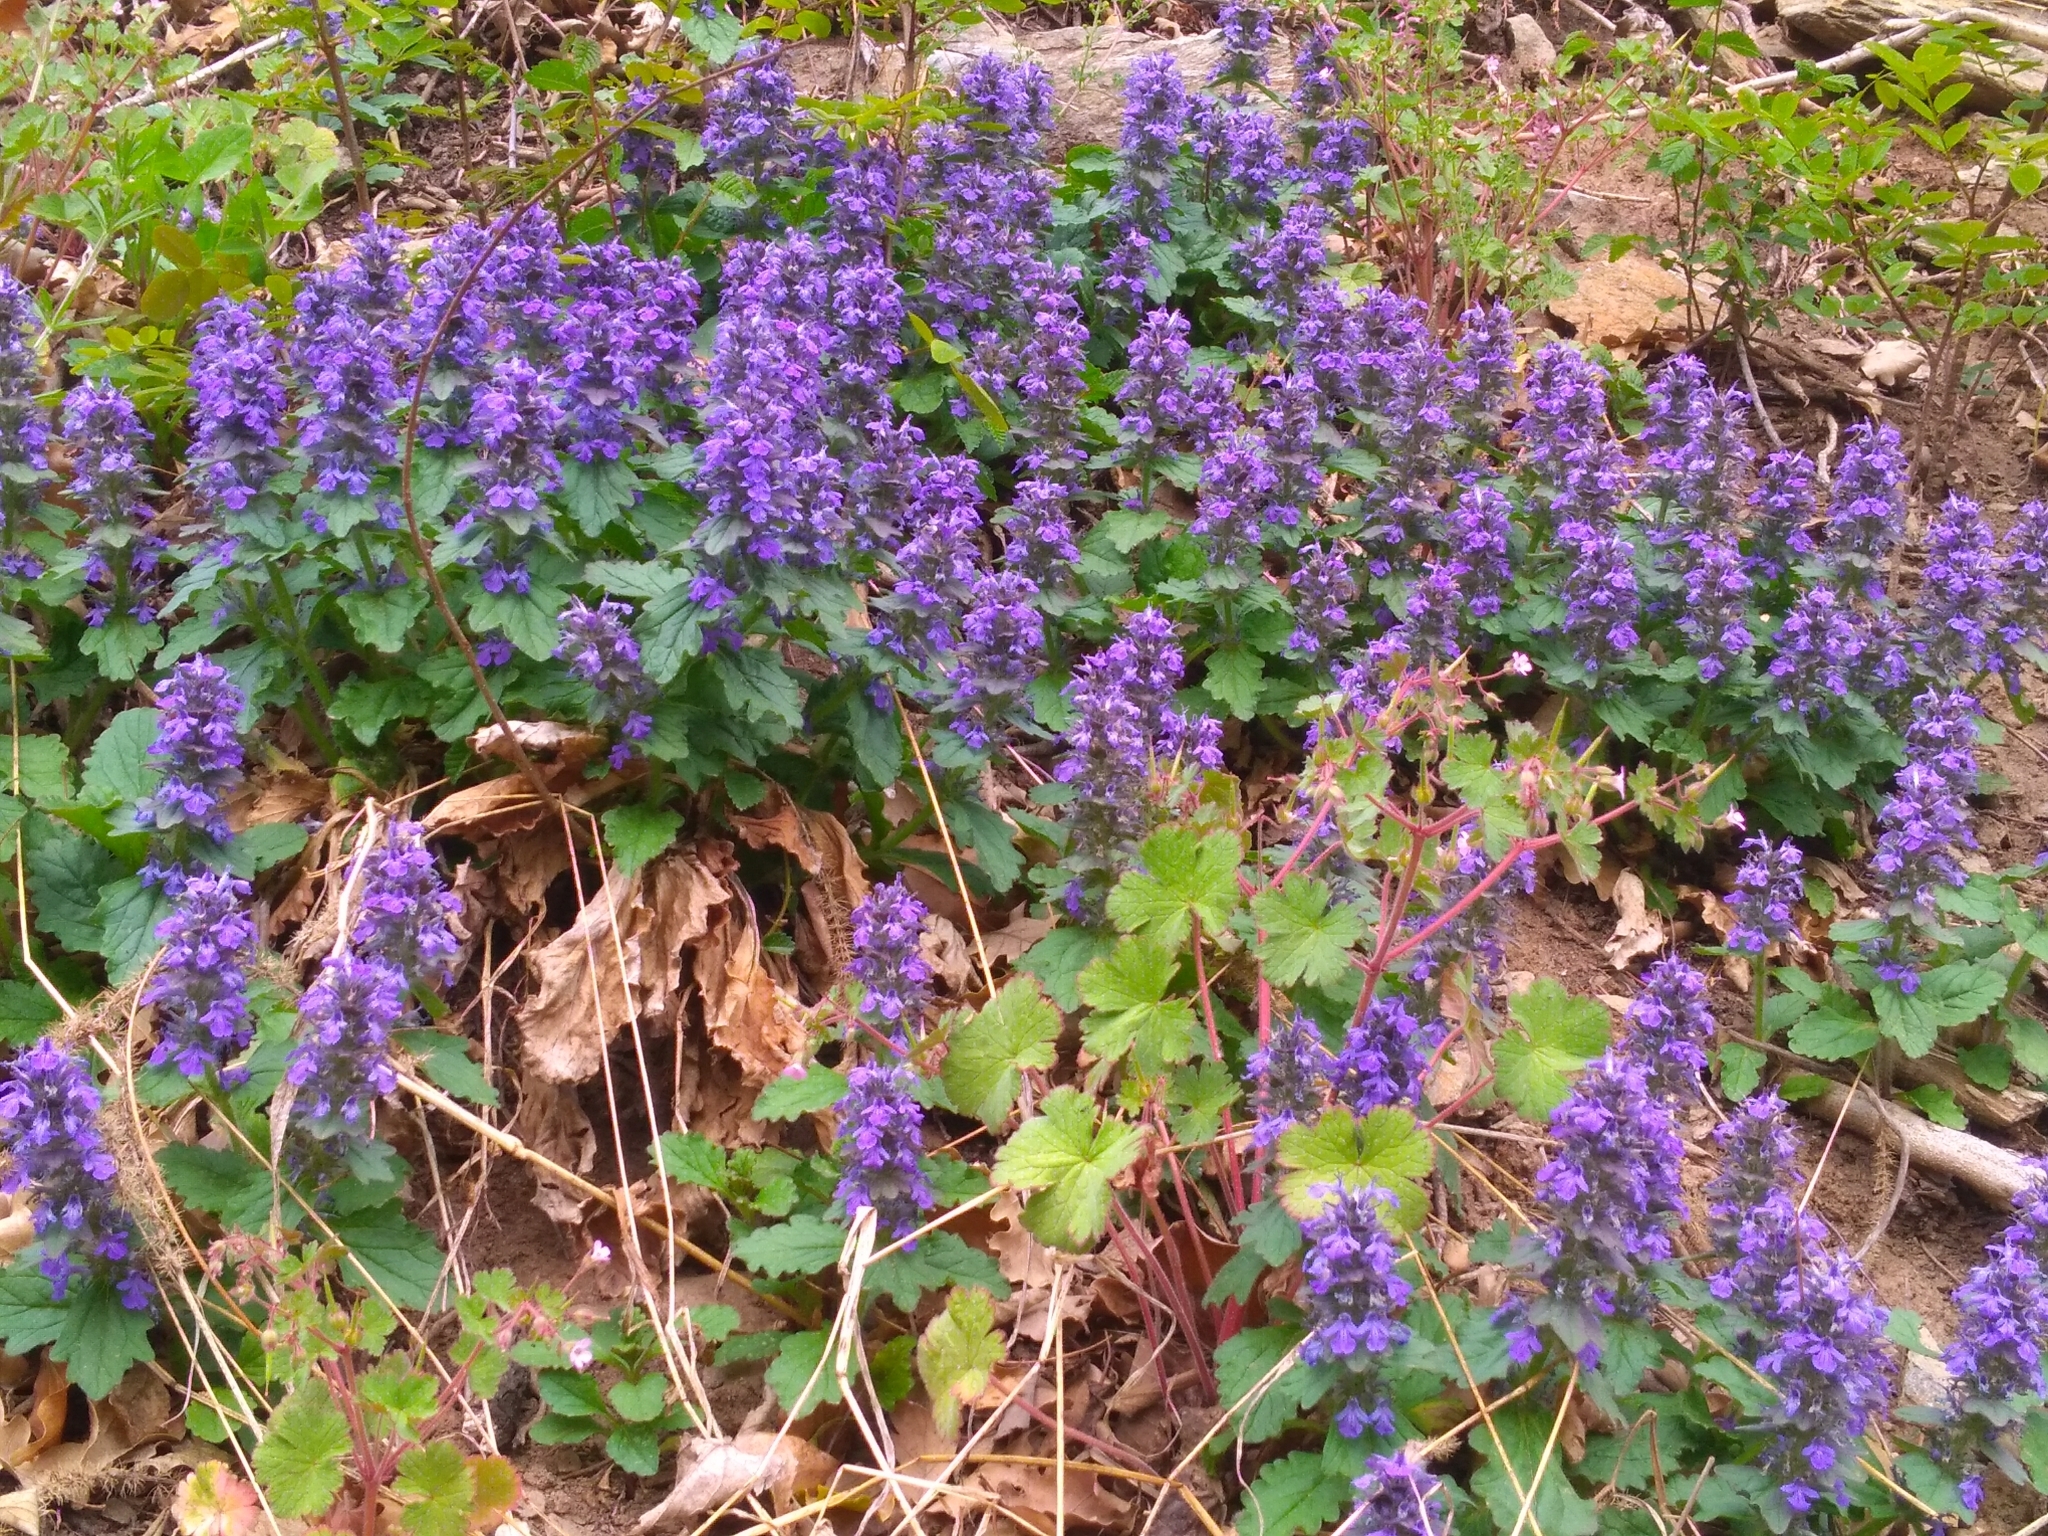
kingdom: Plantae
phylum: Tracheophyta
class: Magnoliopsida
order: Lamiales
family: Lamiaceae
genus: Ajuga
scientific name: Ajuga genevensis
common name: Blue bugle
